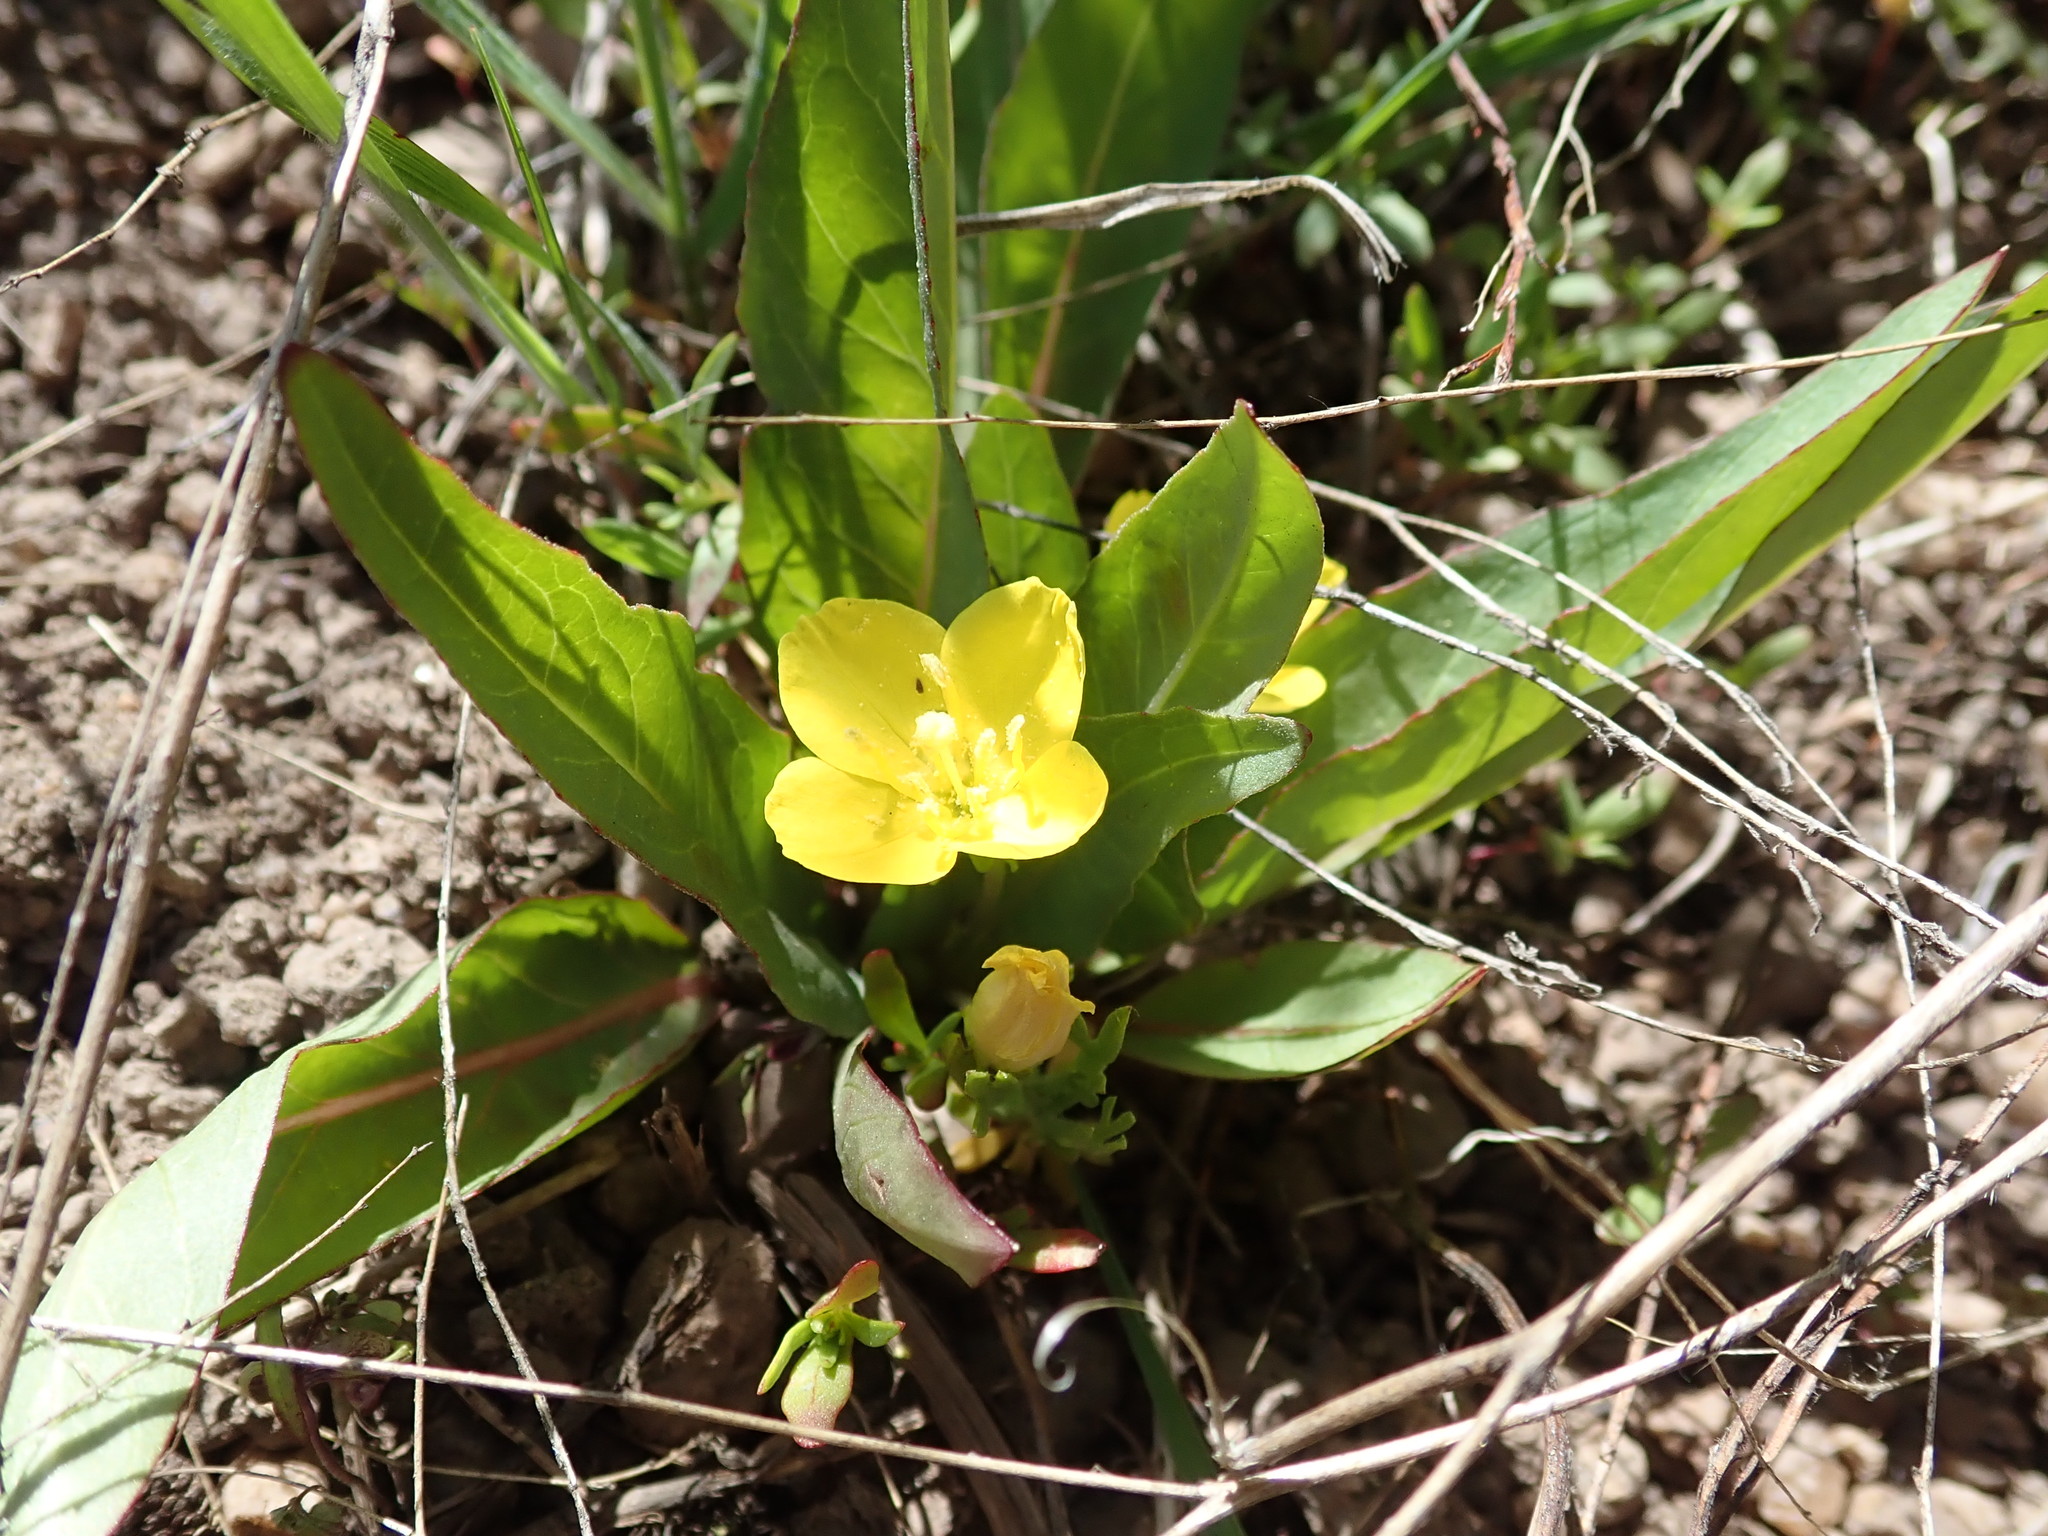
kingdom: Plantae
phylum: Tracheophyta
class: Magnoliopsida
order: Myrtales
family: Onagraceae
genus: Taraxia
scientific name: Taraxia subacaulis
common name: Diffuseflower evening primrose
